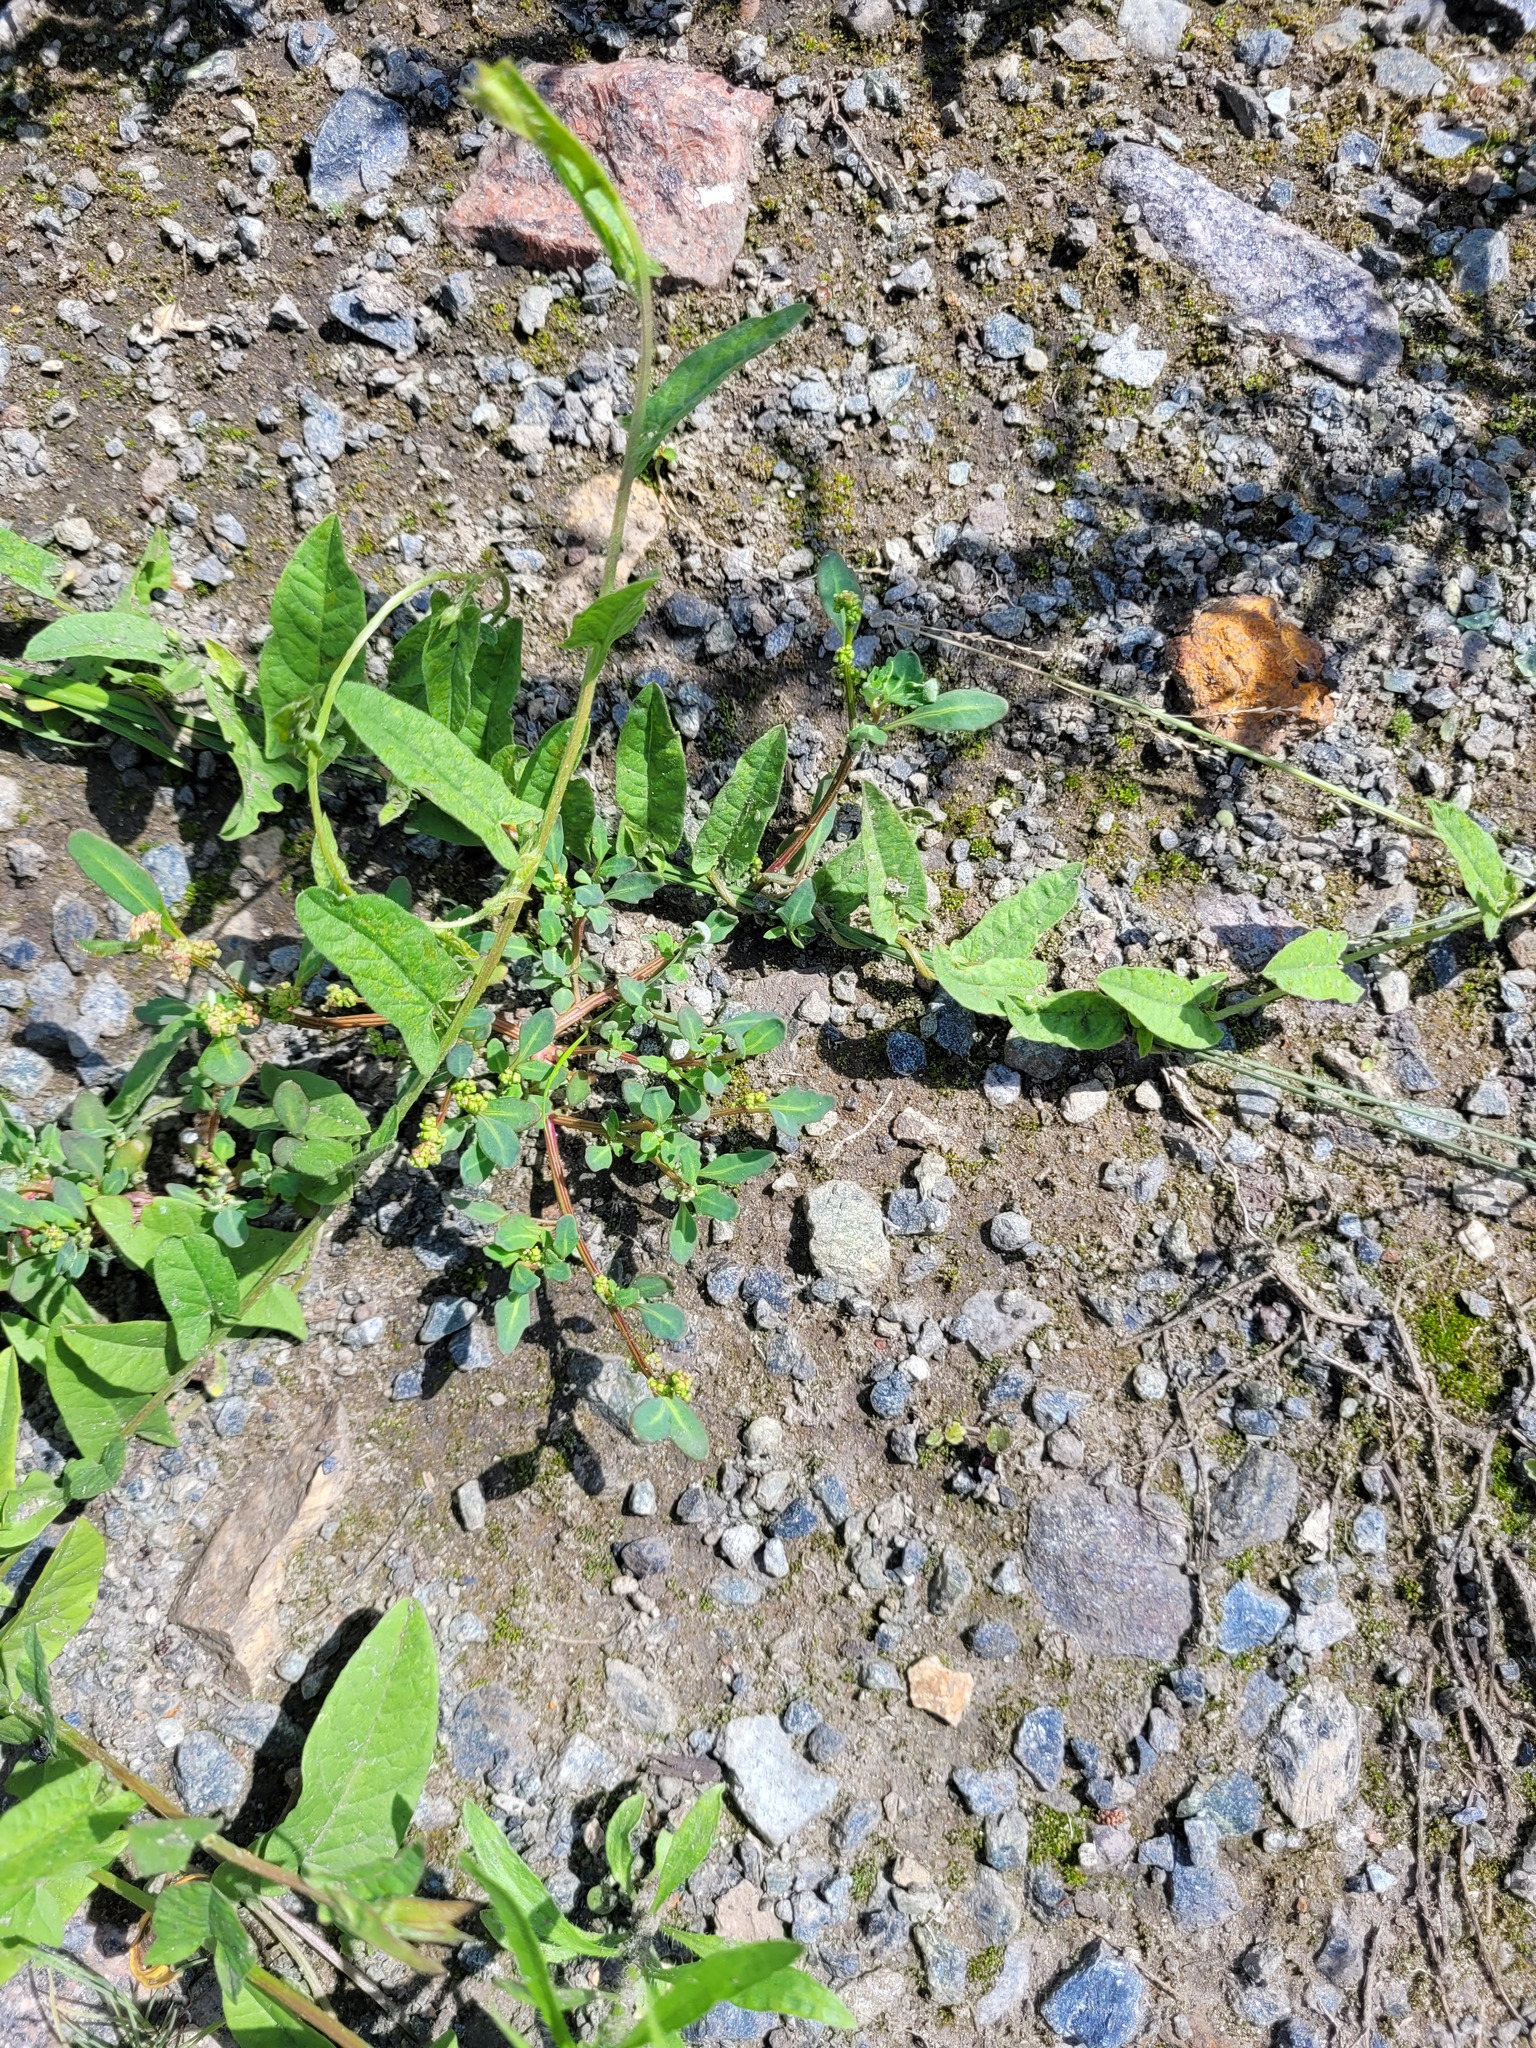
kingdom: Plantae
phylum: Tracheophyta
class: Magnoliopsida
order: Caryophyllales
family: Amaranthaceae
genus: Oxybasis
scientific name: Oxybasis glauca
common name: Glaucous goosefoot
